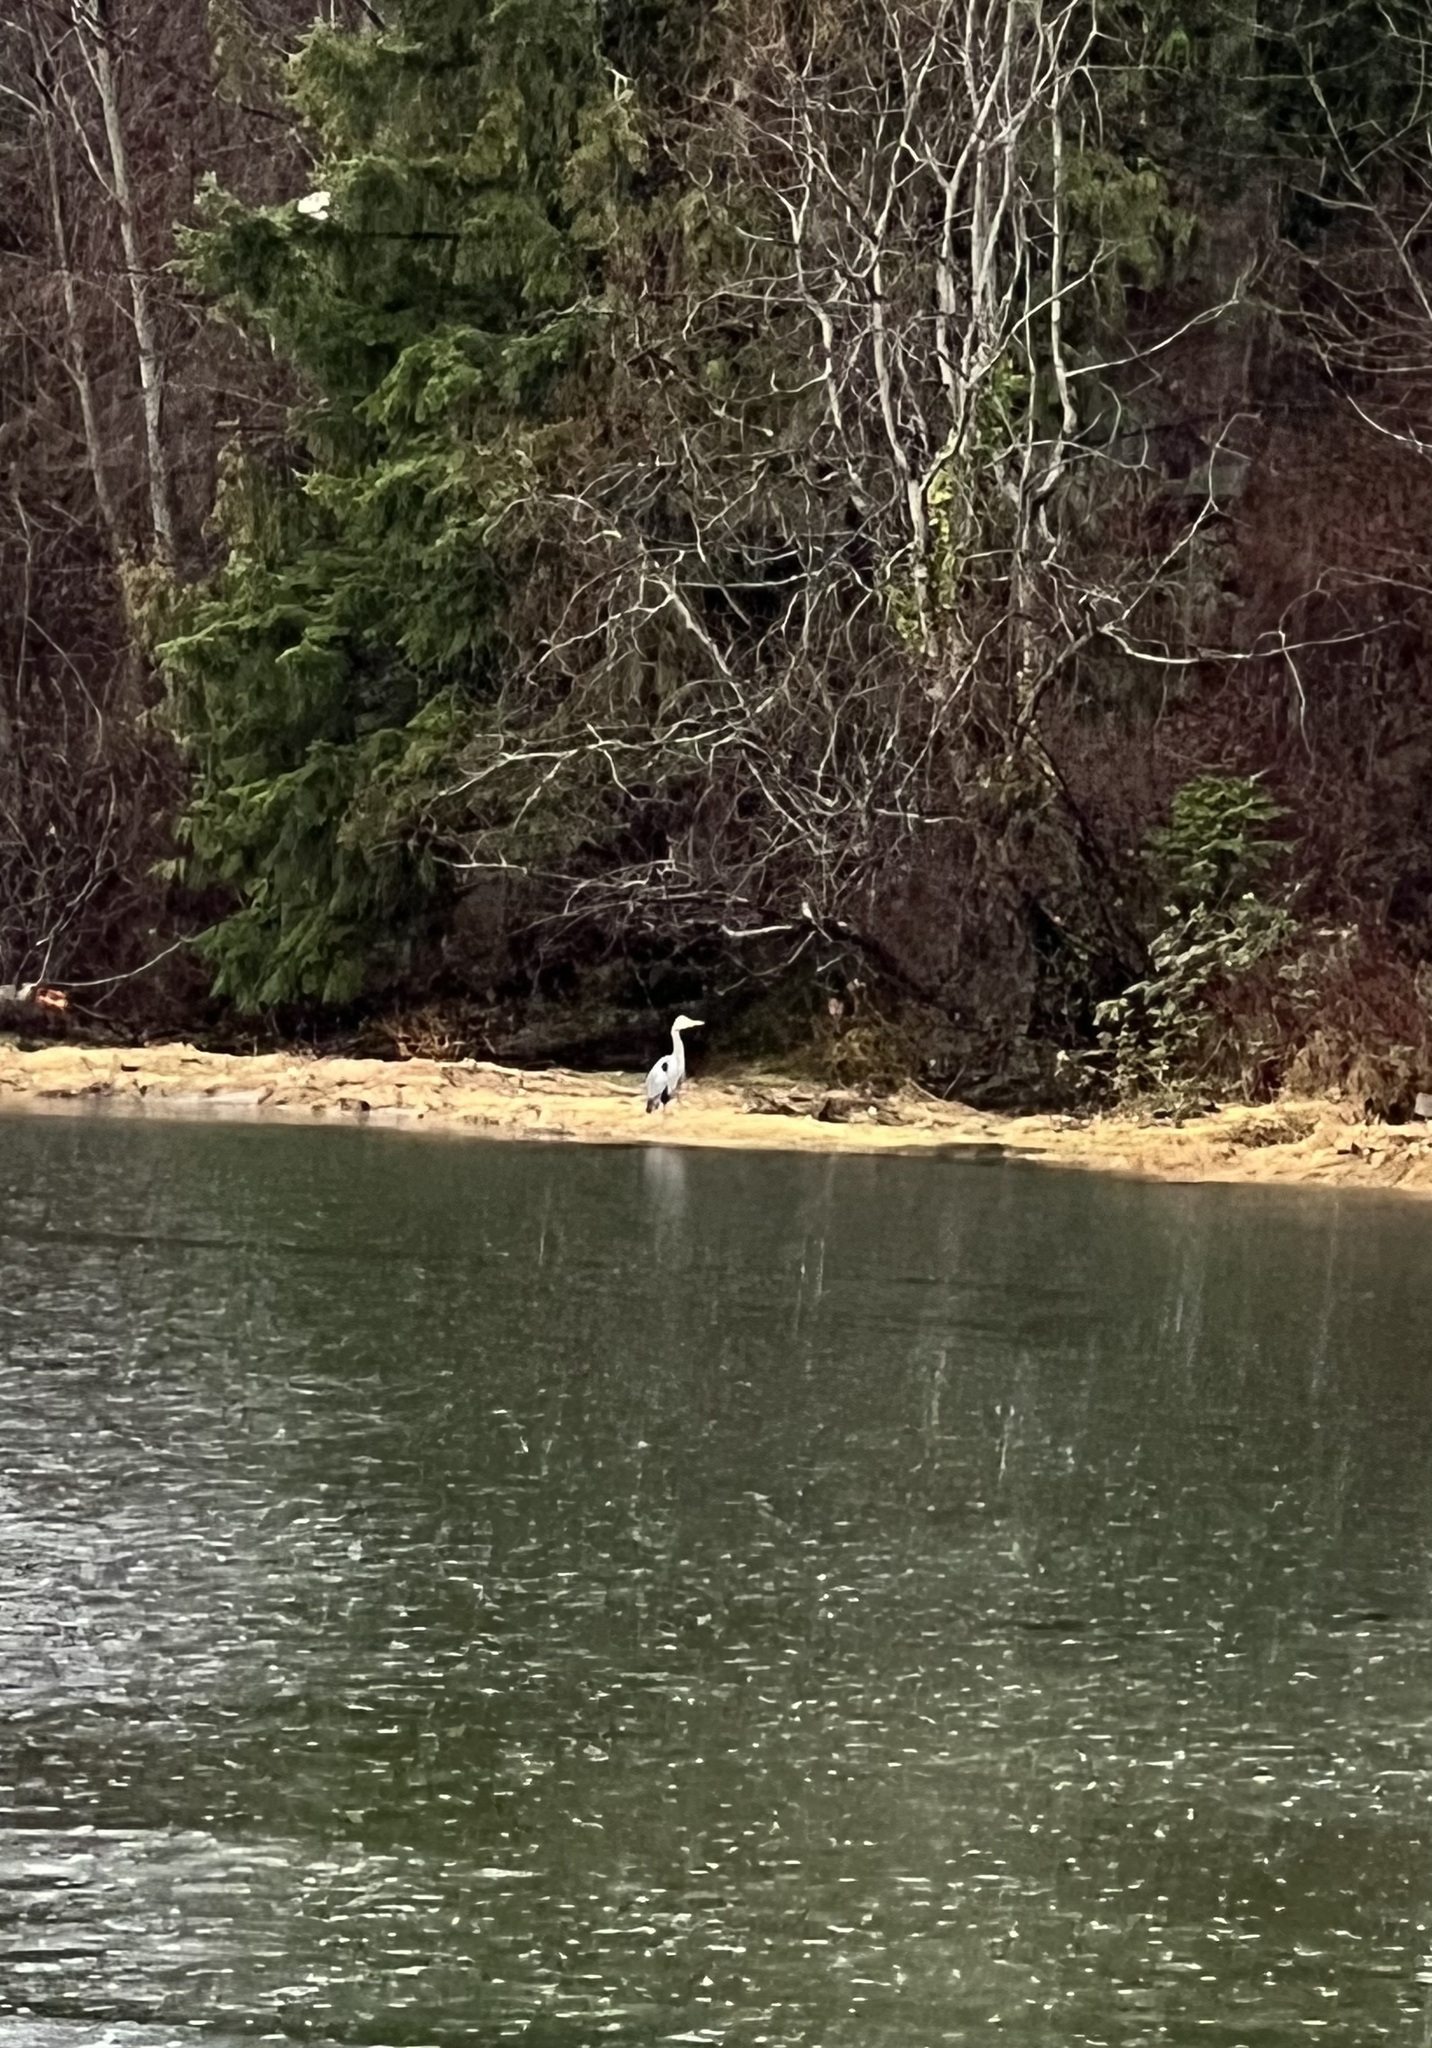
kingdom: Animalia
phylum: Chordata
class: Aves
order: Pelecaniformes
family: Ardeidae
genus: Ardea
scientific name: Ardea herodias
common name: Great blue heron
